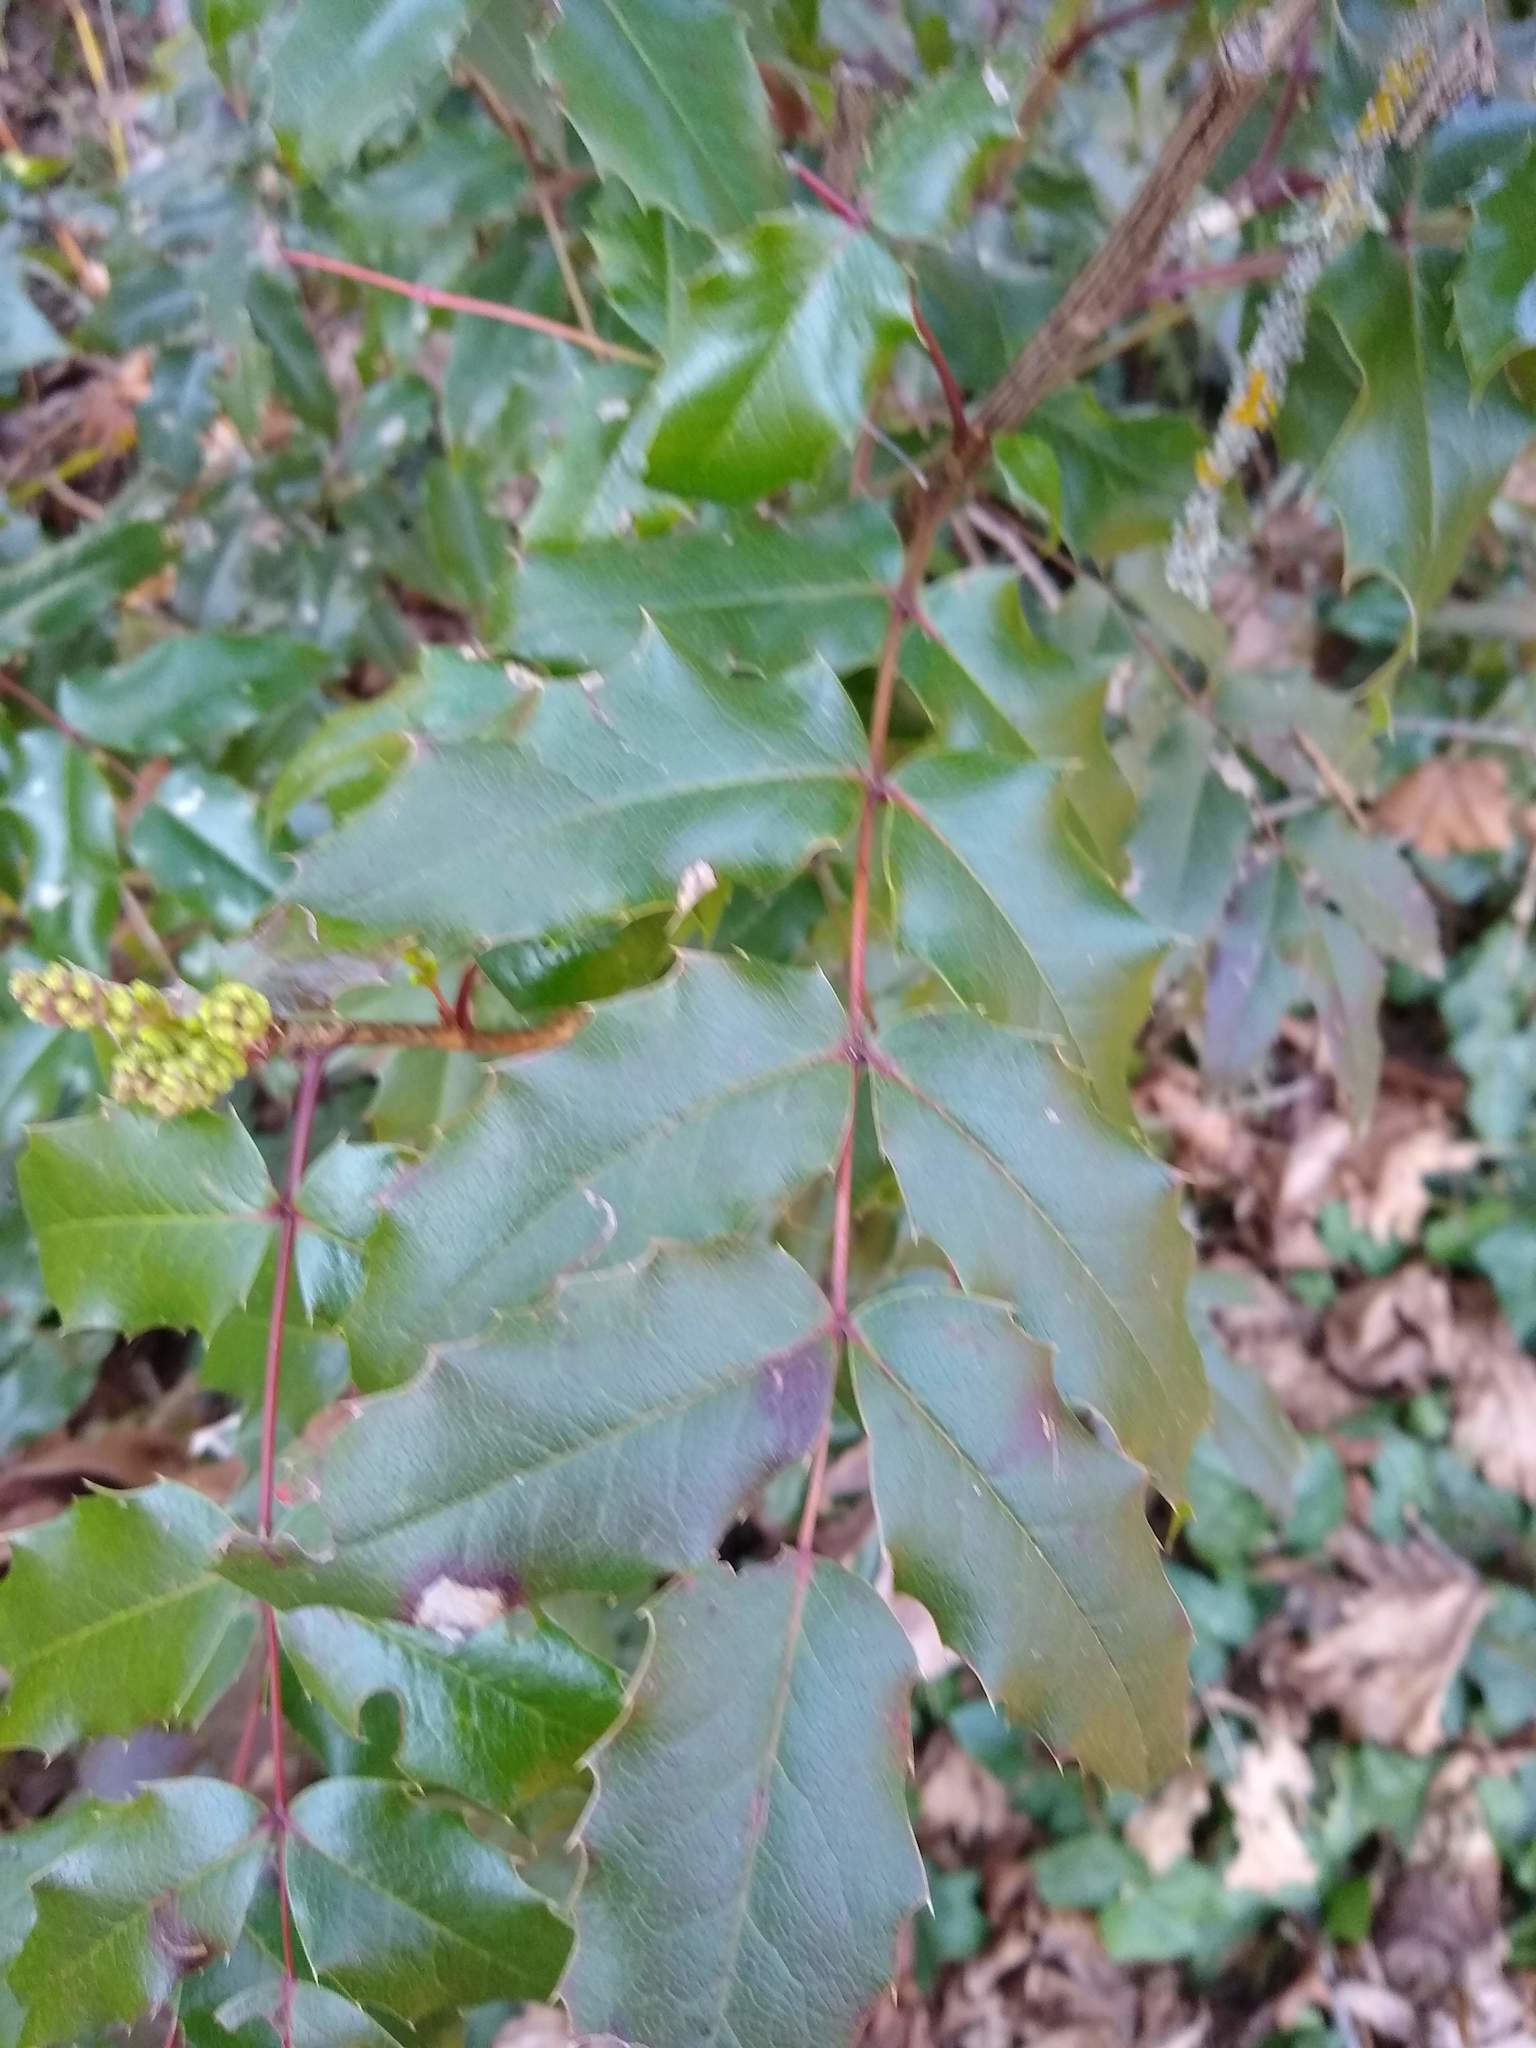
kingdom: Plantae
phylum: Tracheophyta
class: Magnoliopsida
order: Ranunculales
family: Berberidaceae
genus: Mahonia
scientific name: Mahonia aquifolium
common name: Oregon-grape
